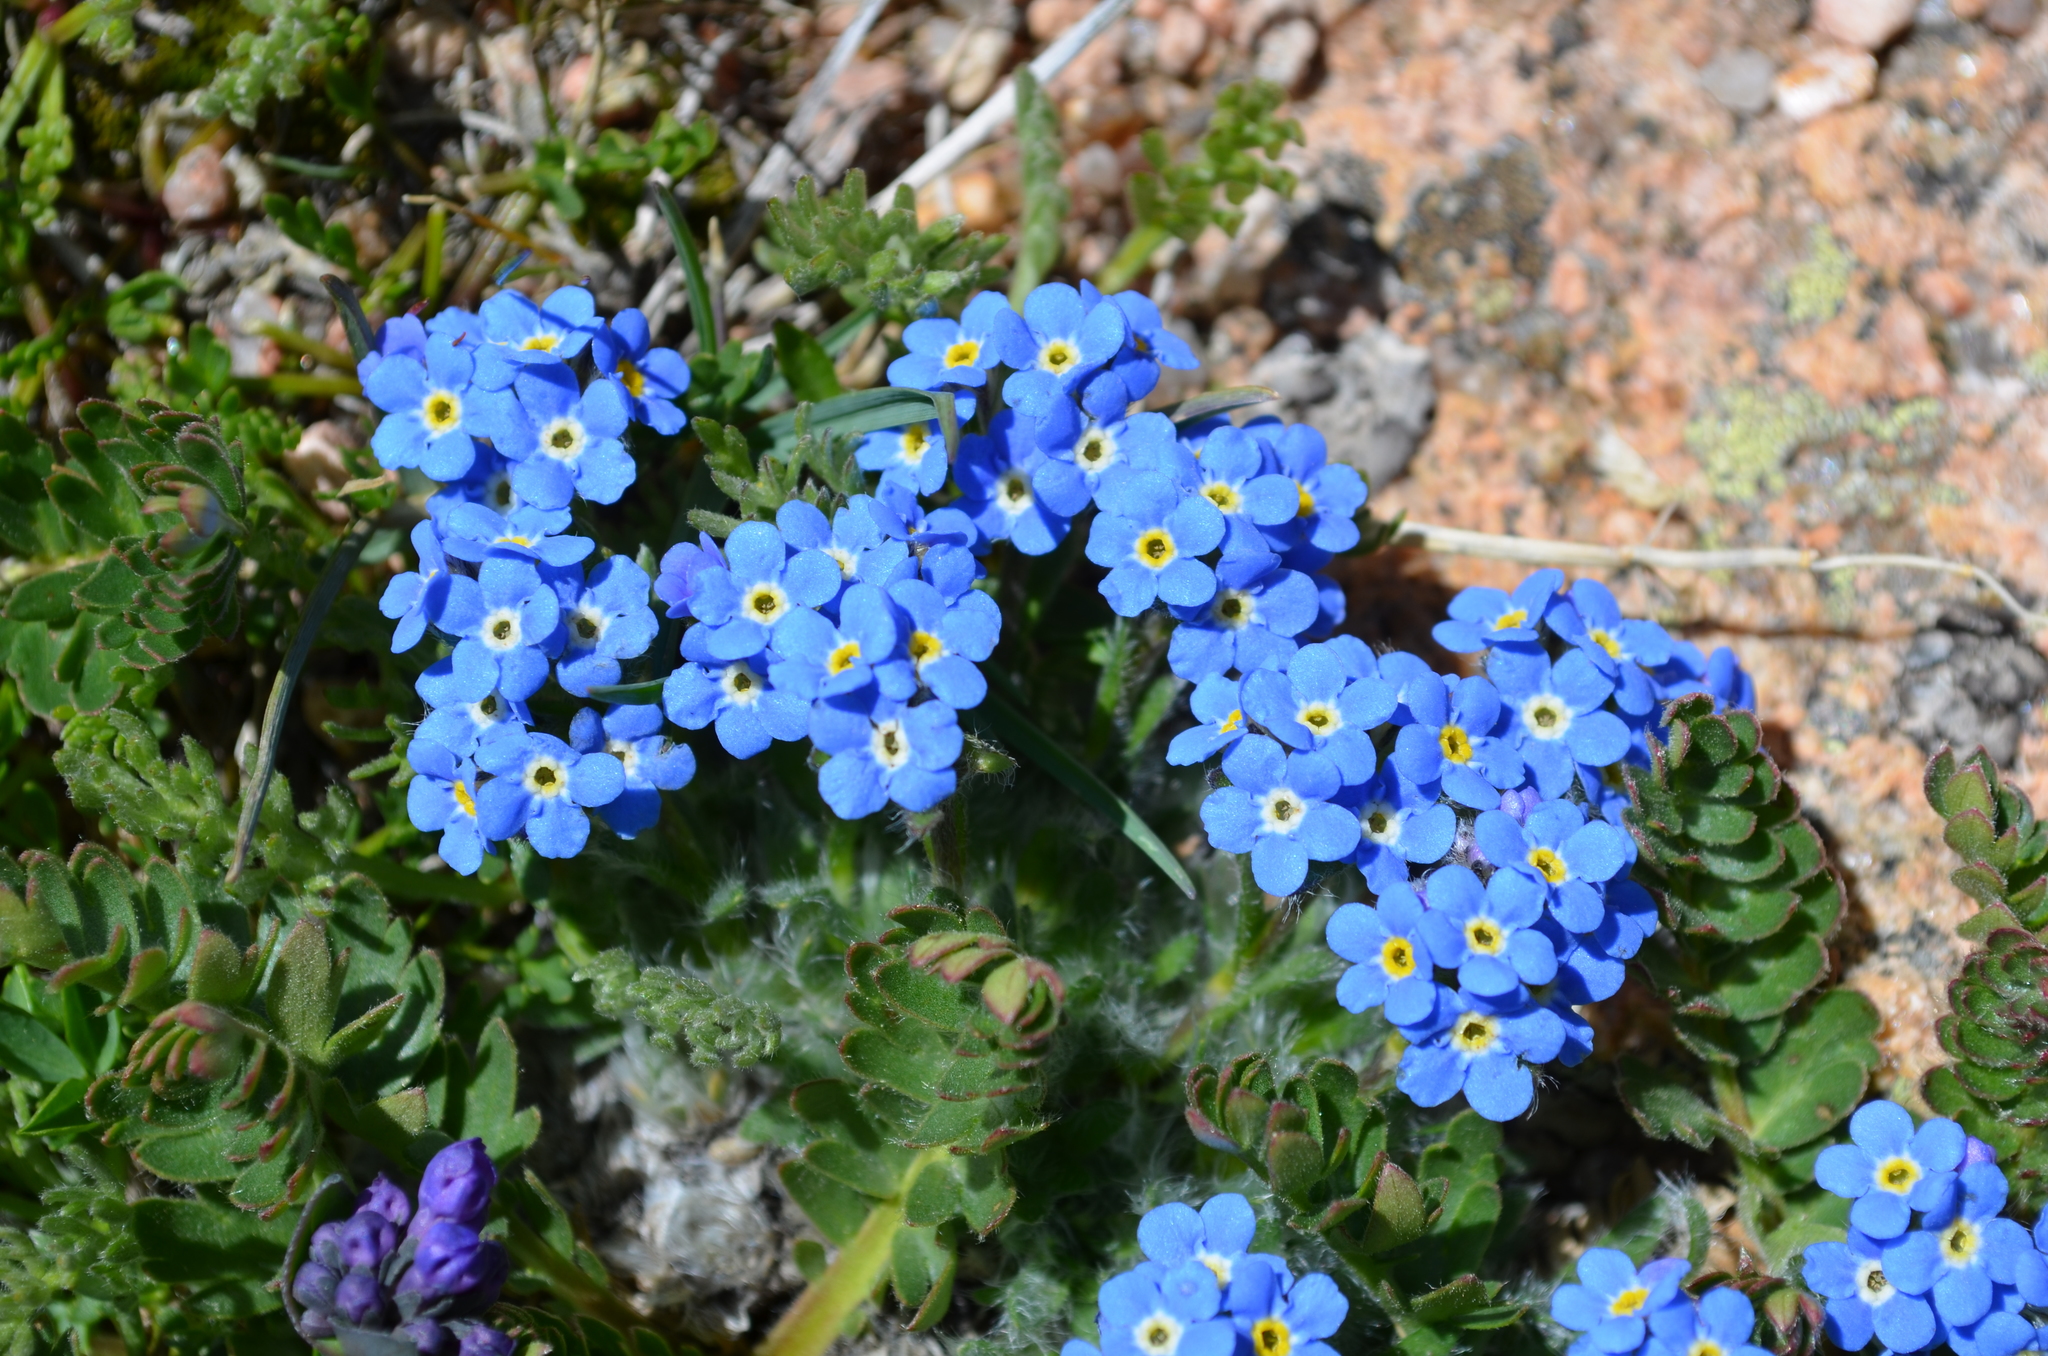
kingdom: Plantae
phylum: Tracheophyta
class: Magnoliopsida
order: Boraginales
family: Boraginaceae
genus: Eritrichium
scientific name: Eritrichium argenteum
